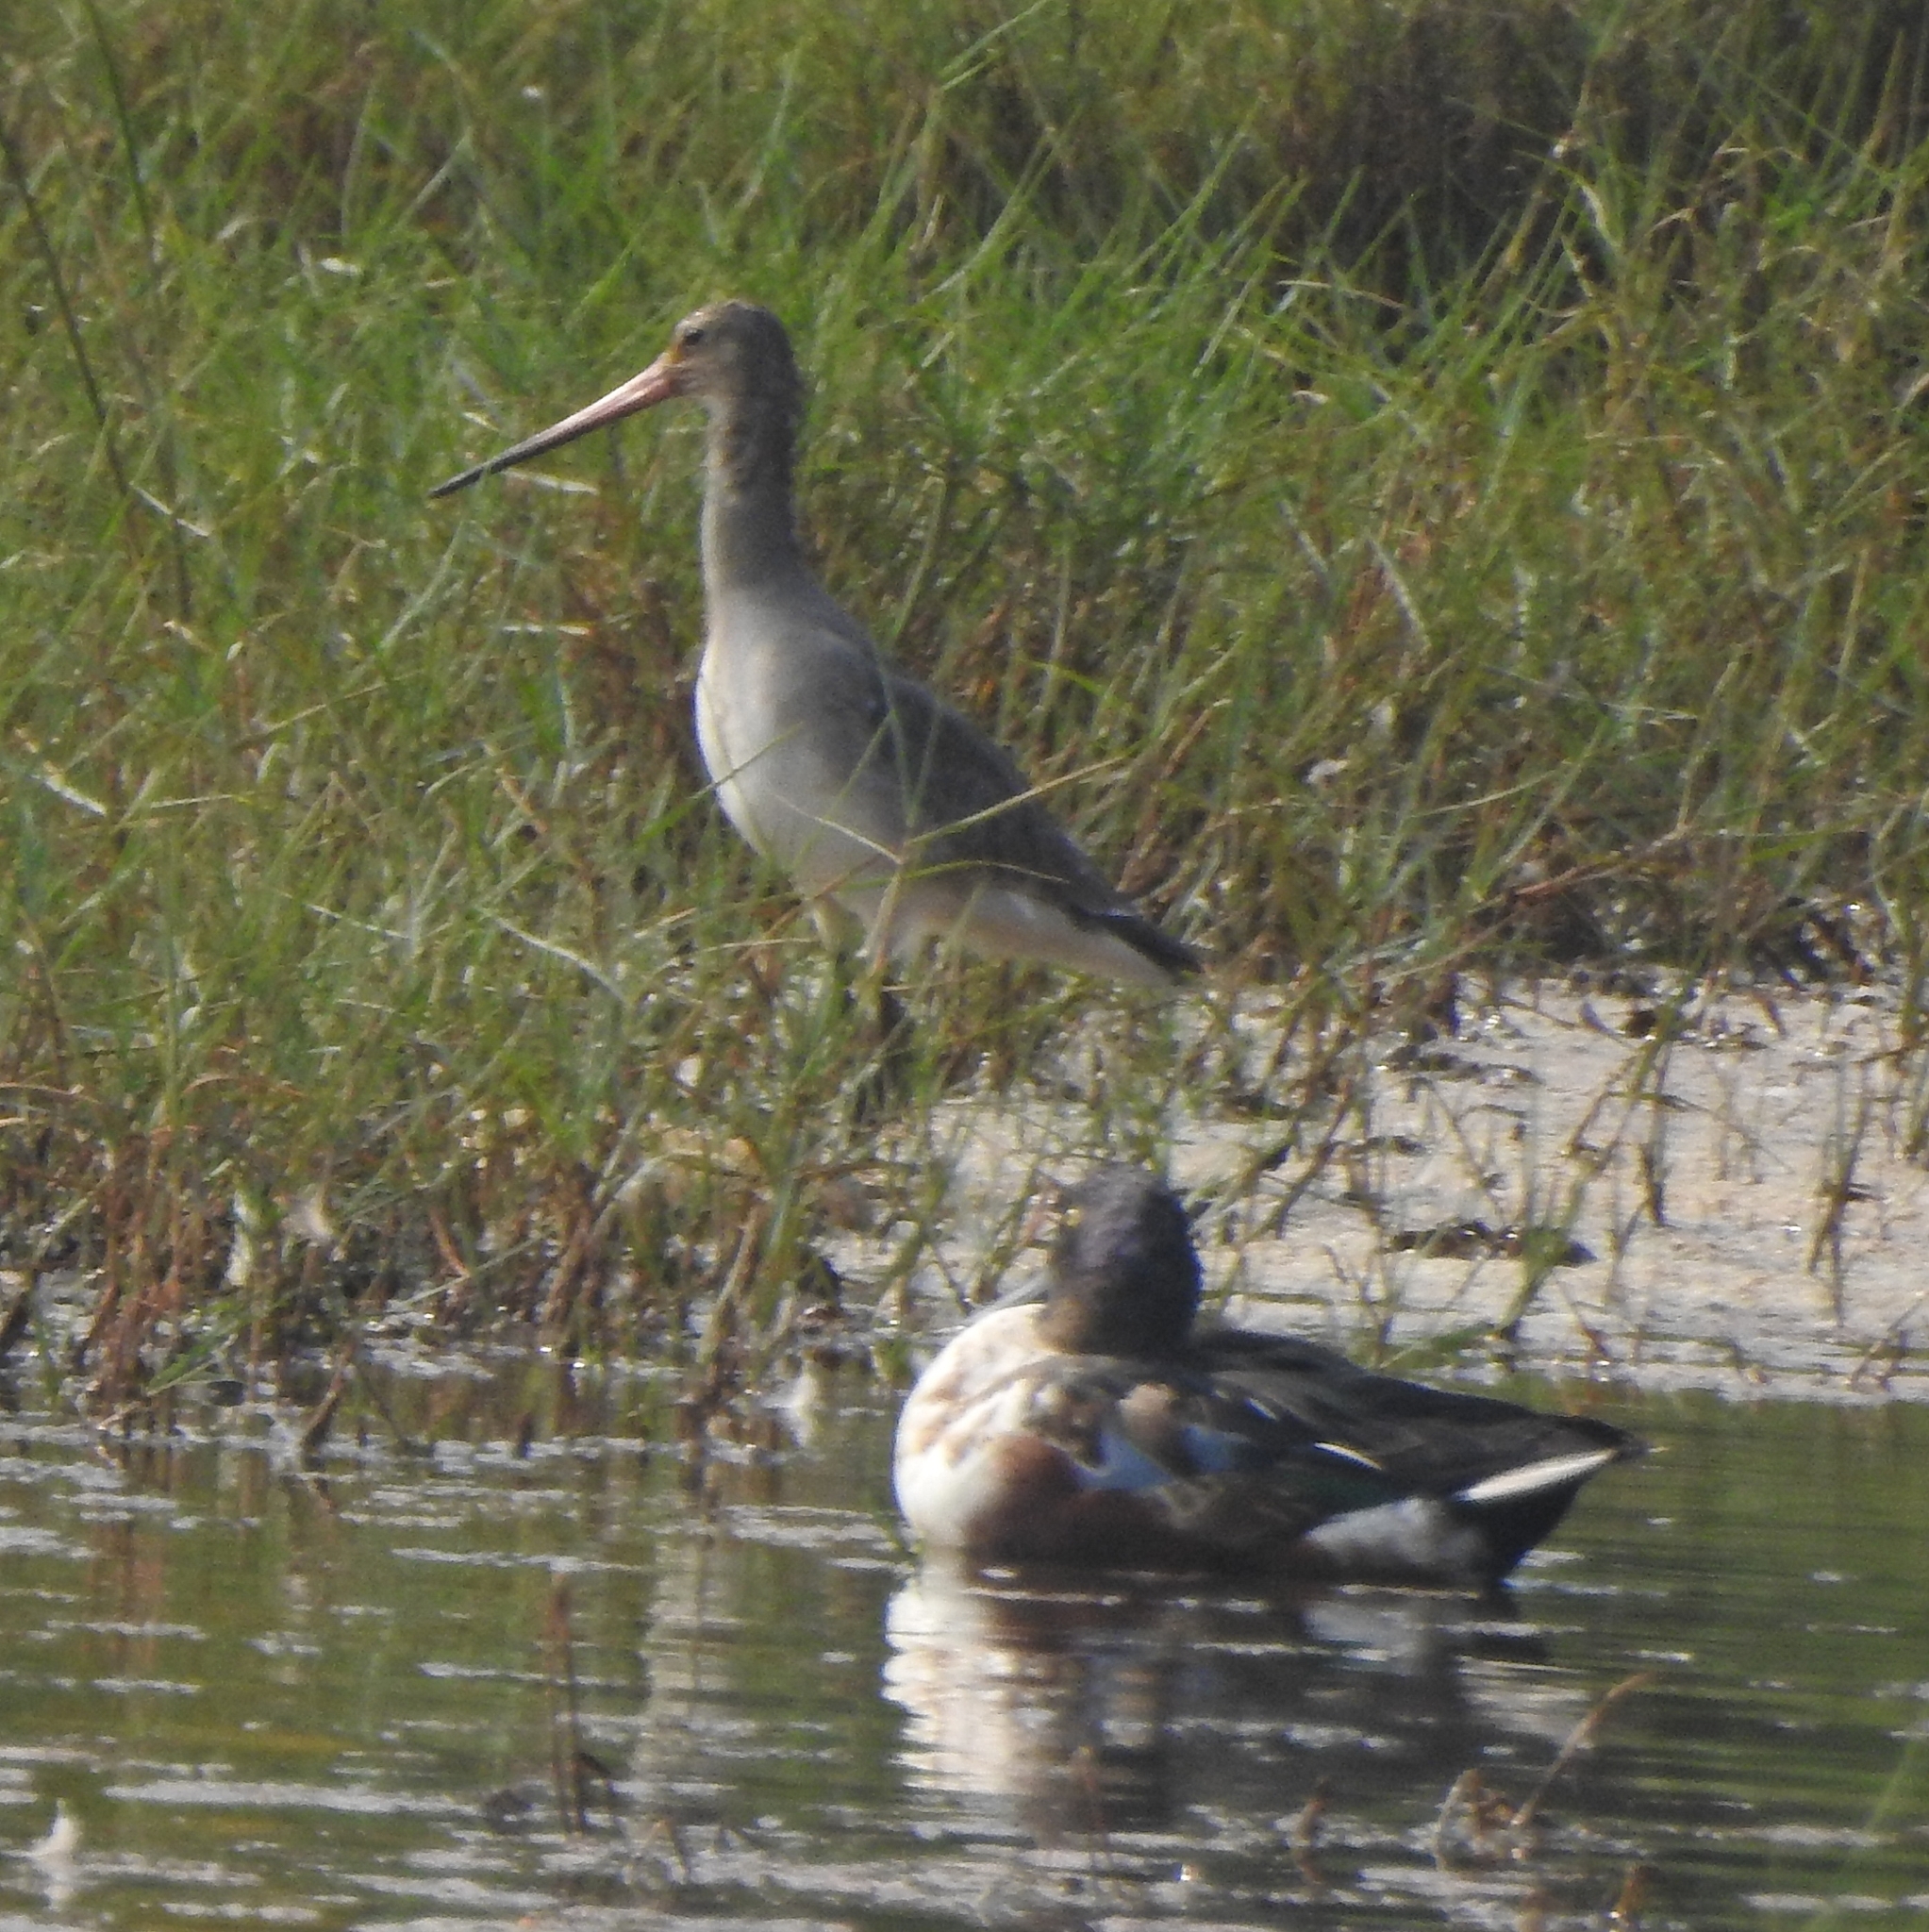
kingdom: Animalia
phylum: Chordata
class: Aves
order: Charadriiformes
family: Scolopacidae
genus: Limosa
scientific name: Limosa limosa
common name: Black-tailed godwit
